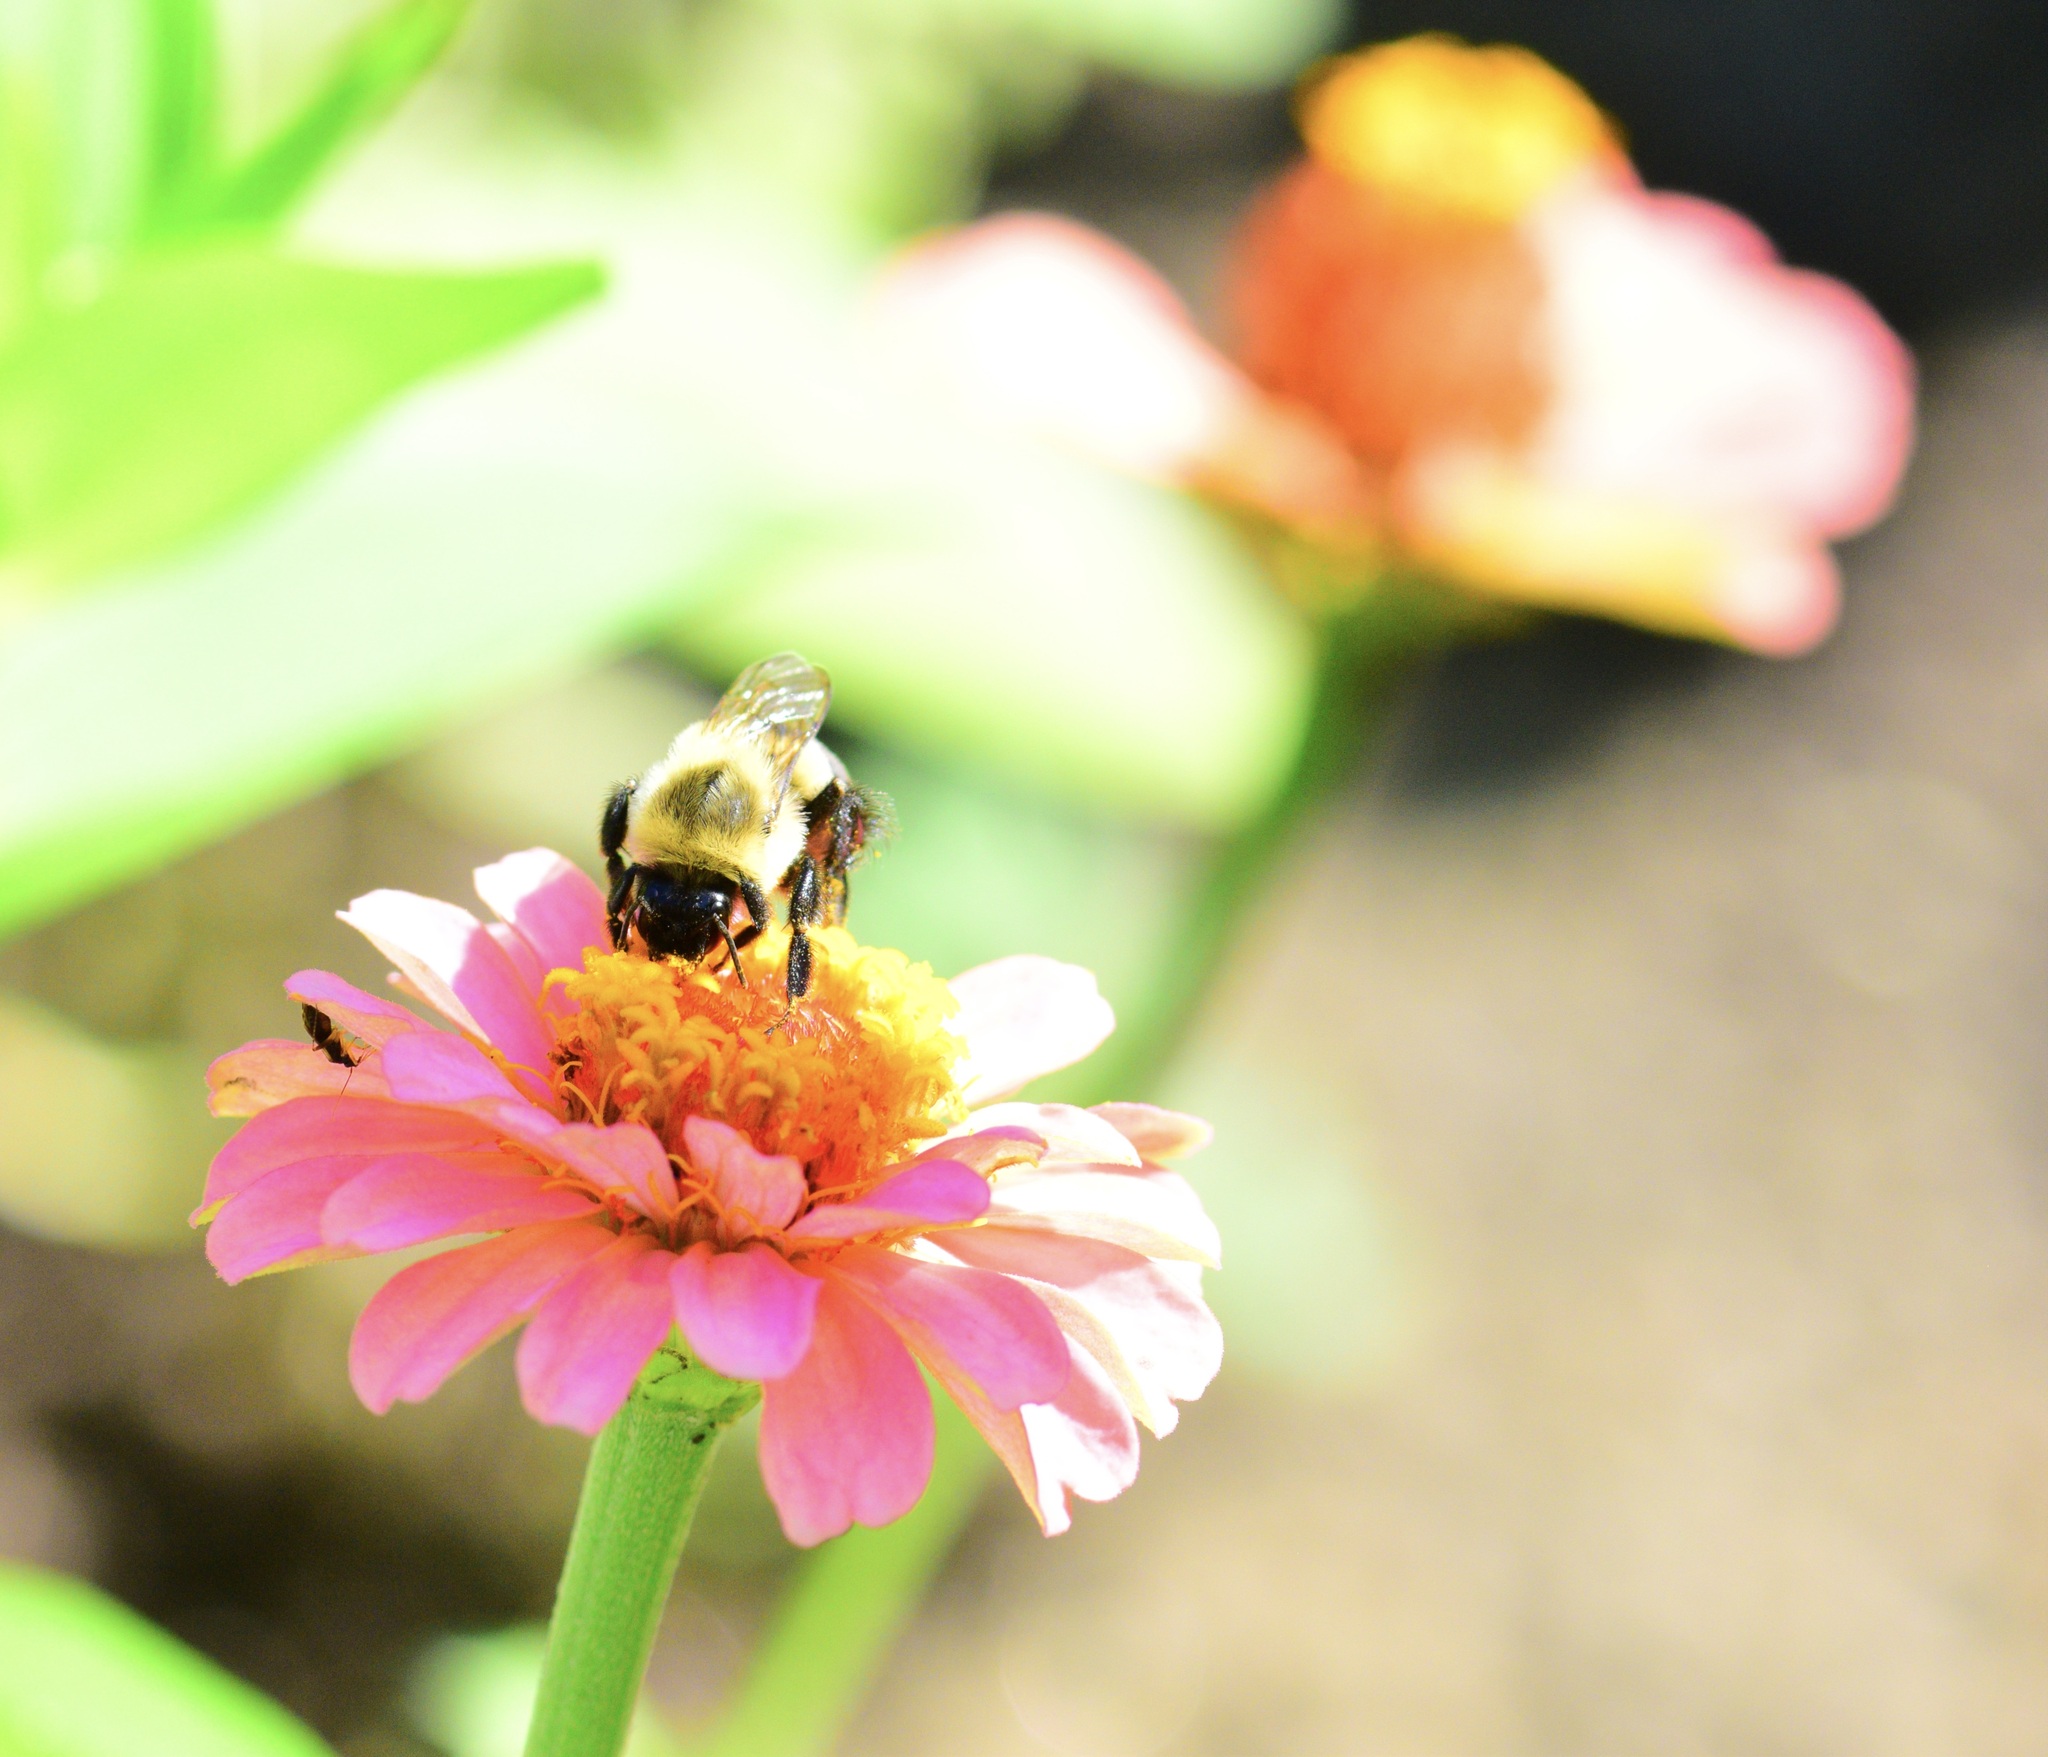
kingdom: Animalia
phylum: Arthropoda
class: Insecta
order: Hymenoptera
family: Apidae
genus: Bombus
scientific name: Bombus impatiens
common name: Common eastern bumble bee
